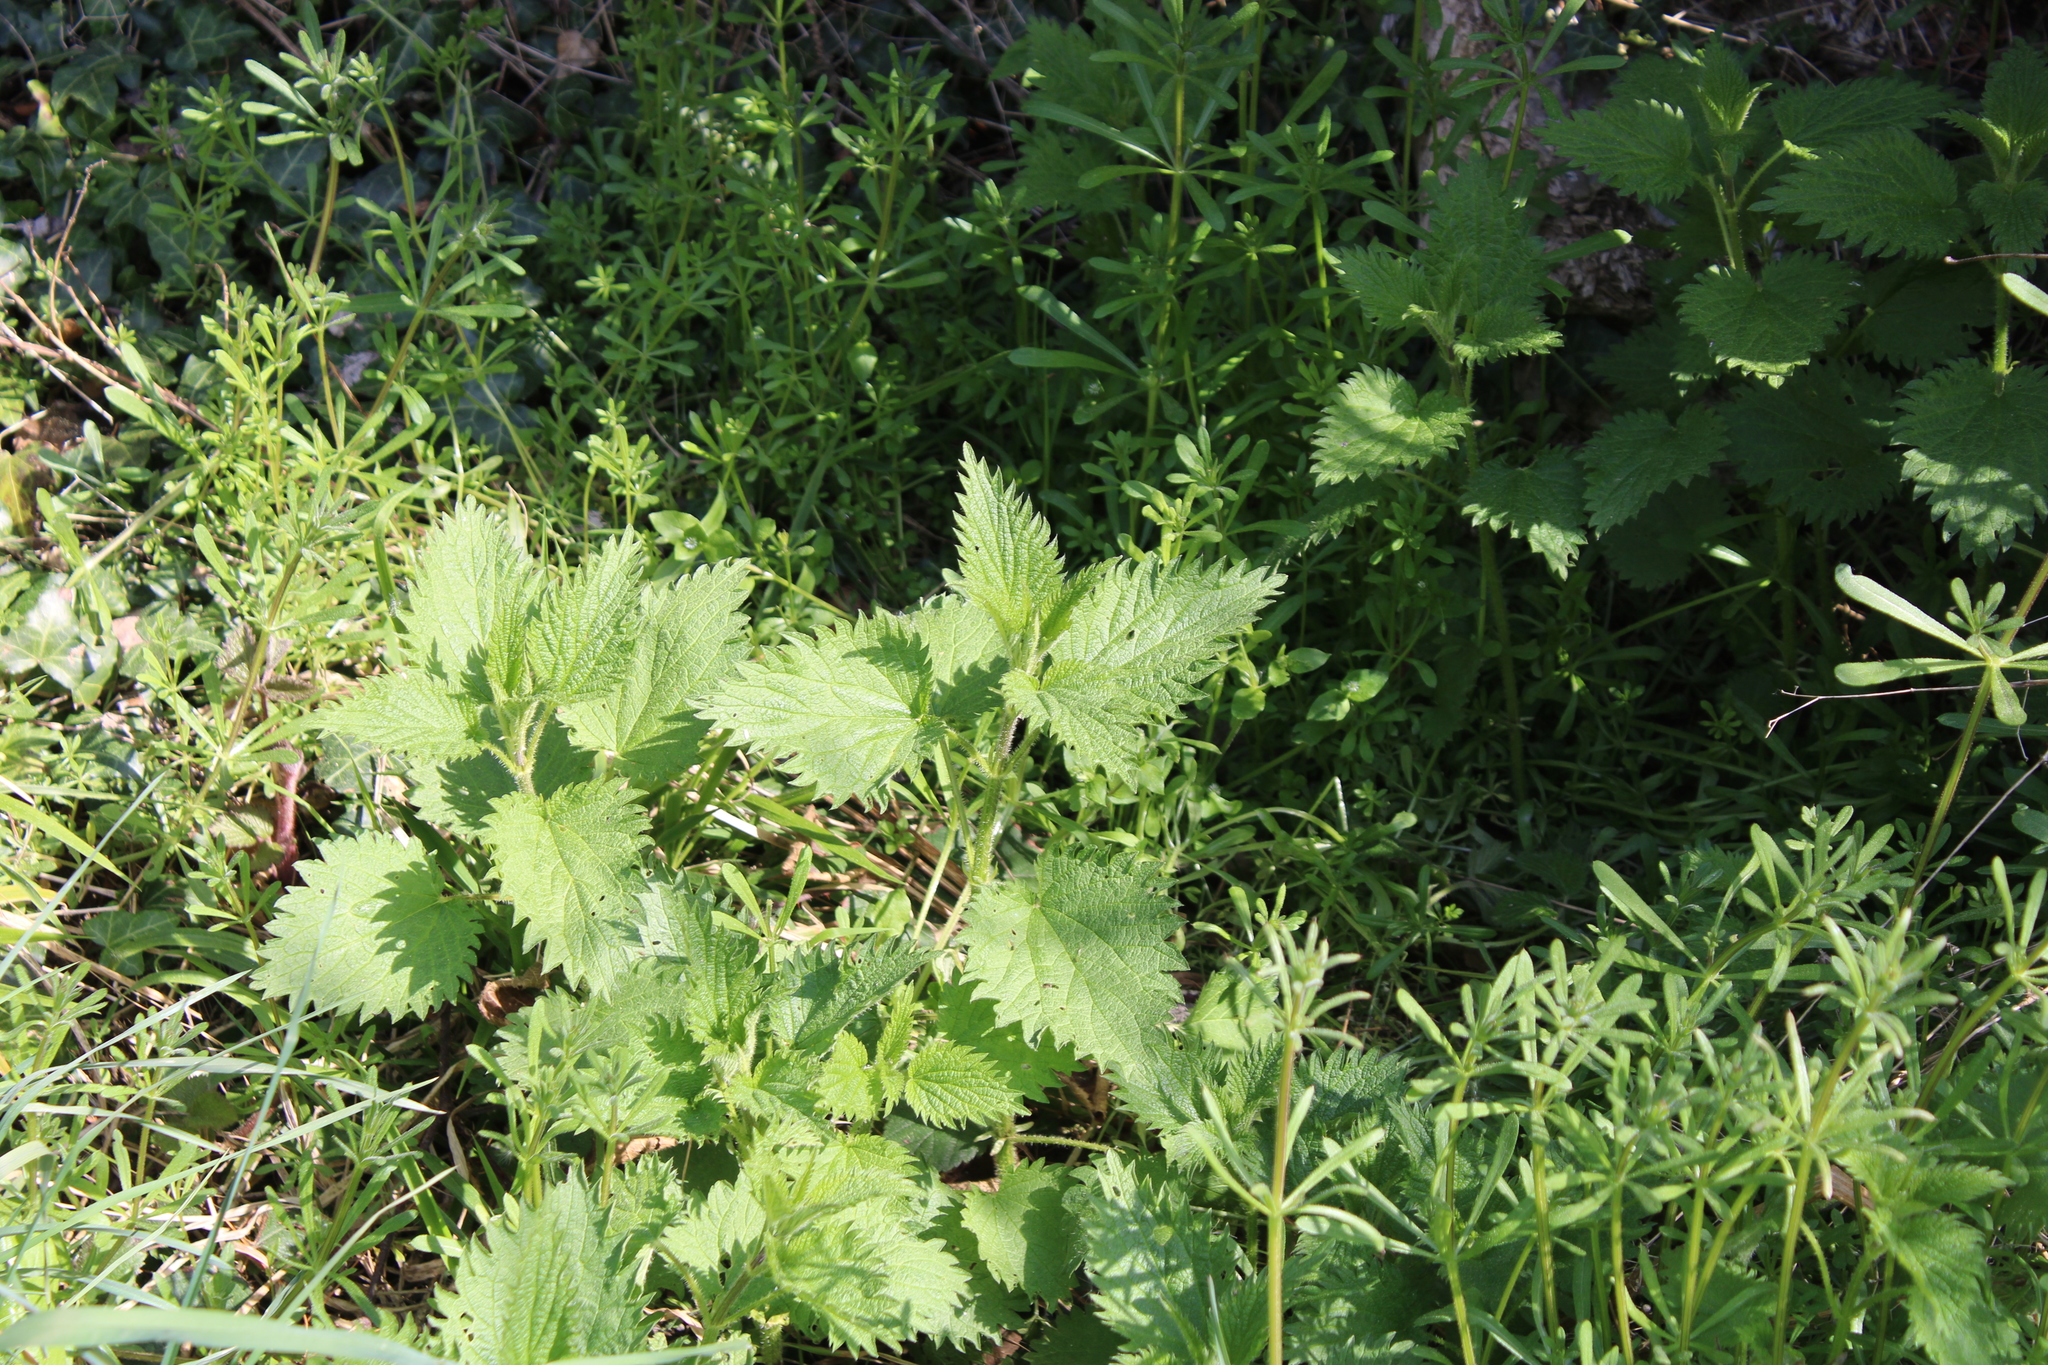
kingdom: Plantae
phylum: Tracheophyta
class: Magnoliopsida
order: Rosales
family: Urticaceae
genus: Urtica
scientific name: Urtica dioica
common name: Common nettle
